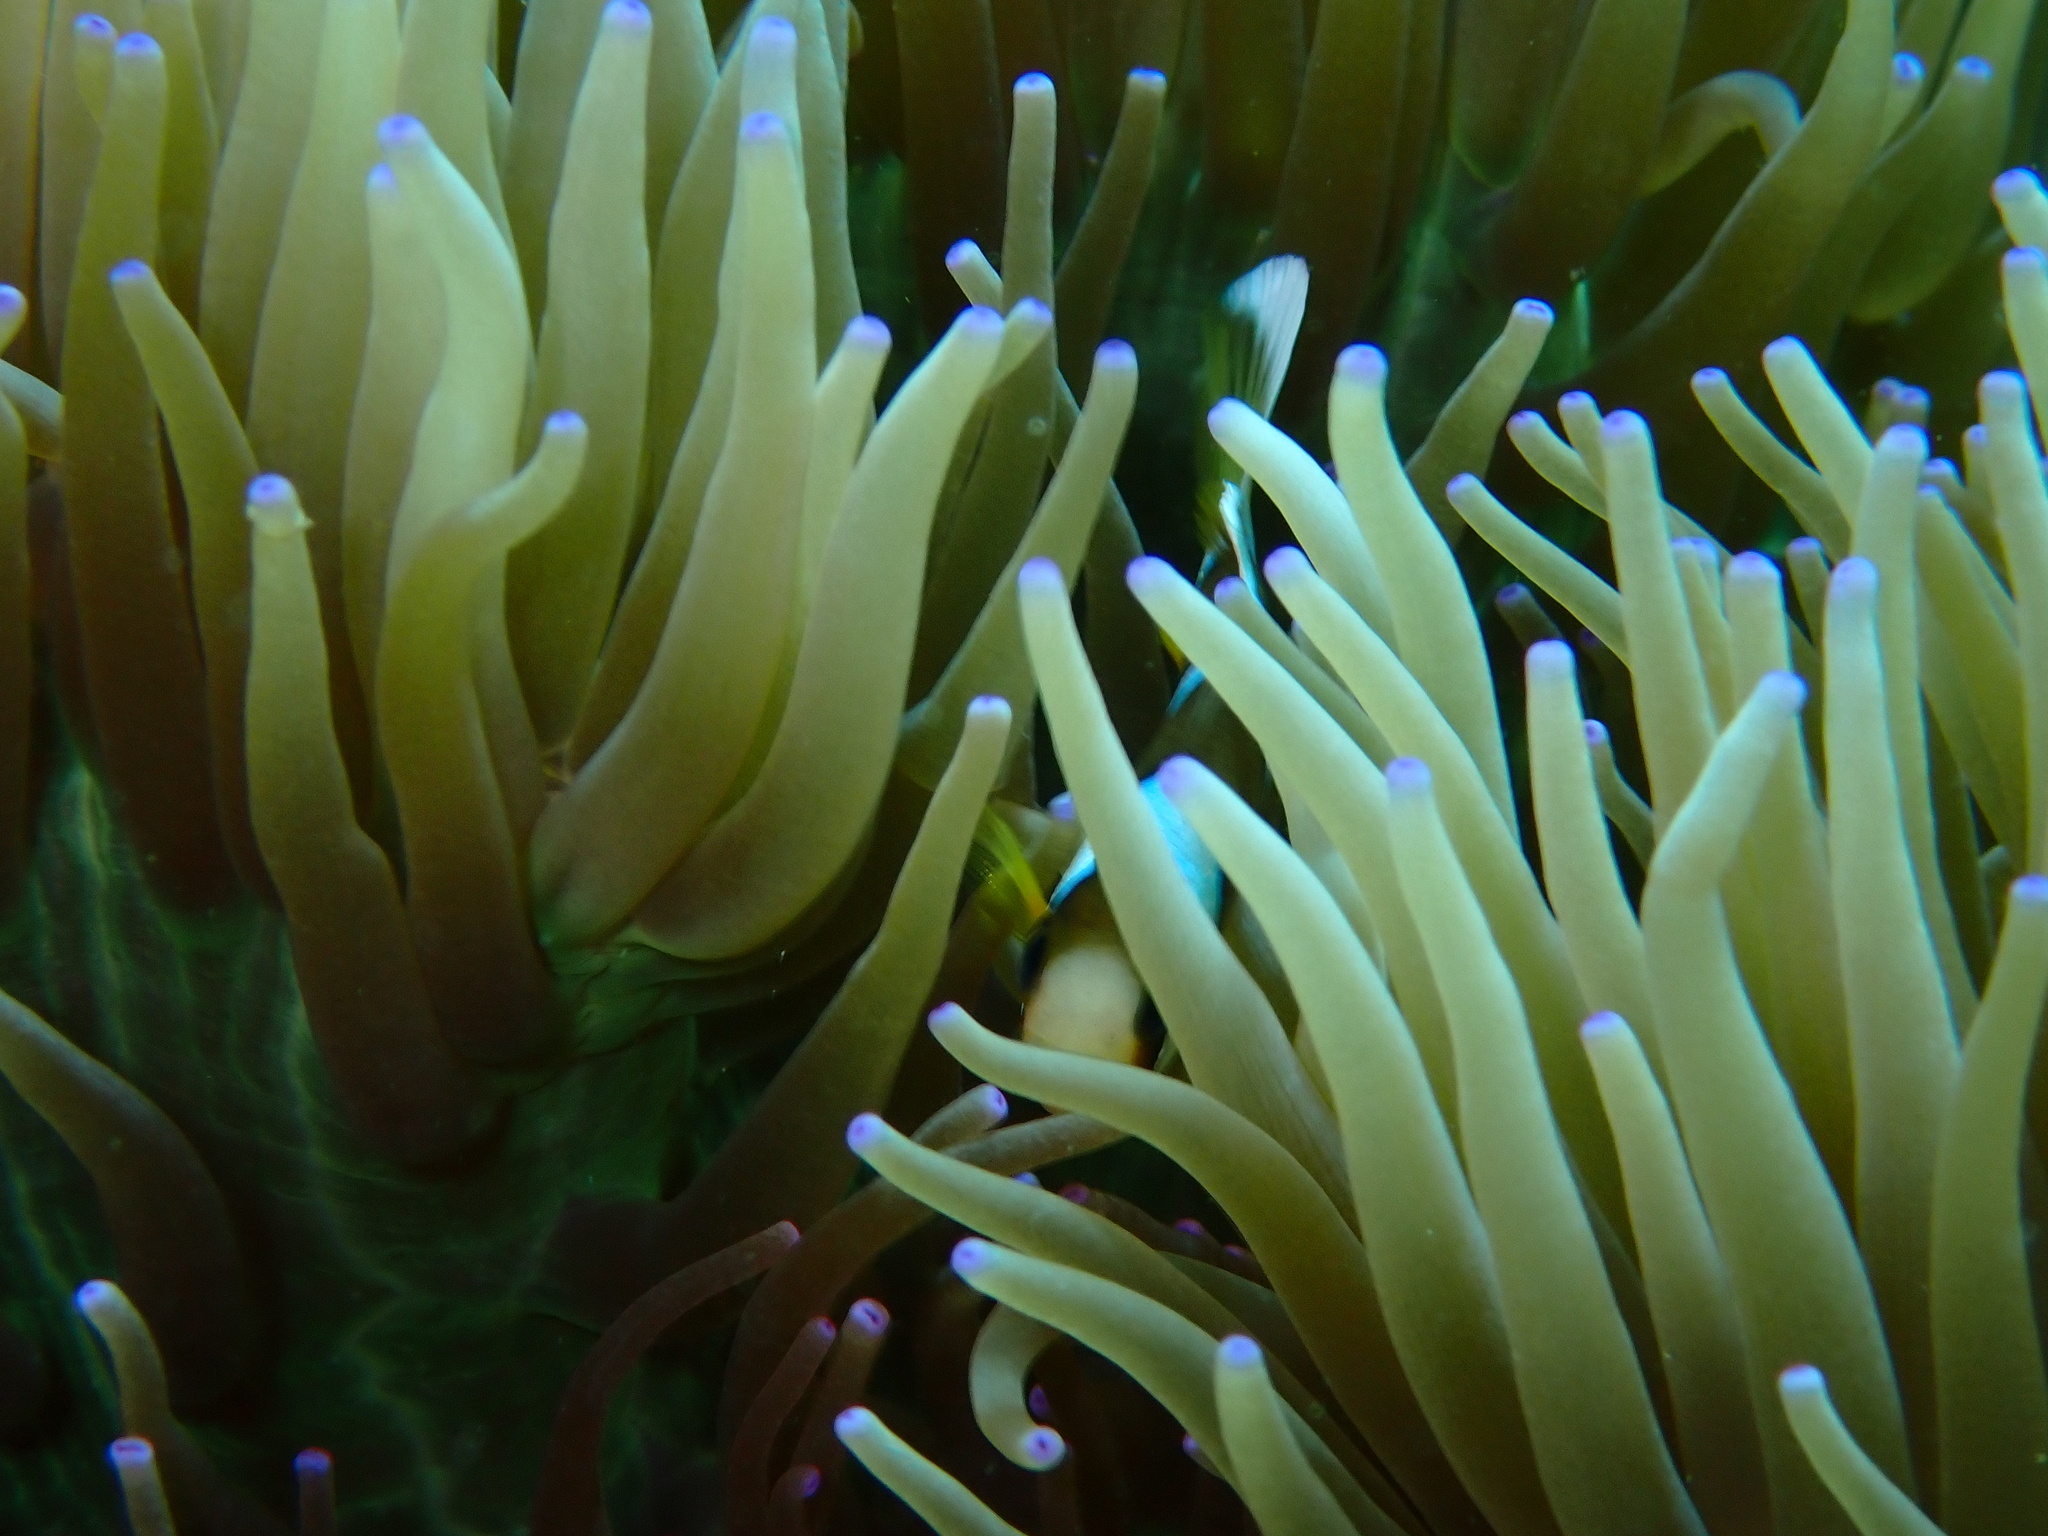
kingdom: Animalia
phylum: Cnidaria
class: Anthozoa
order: Actiniaria
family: Stichodactylidae
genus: Radianthus
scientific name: Radianthus crispa
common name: Leather anemone
